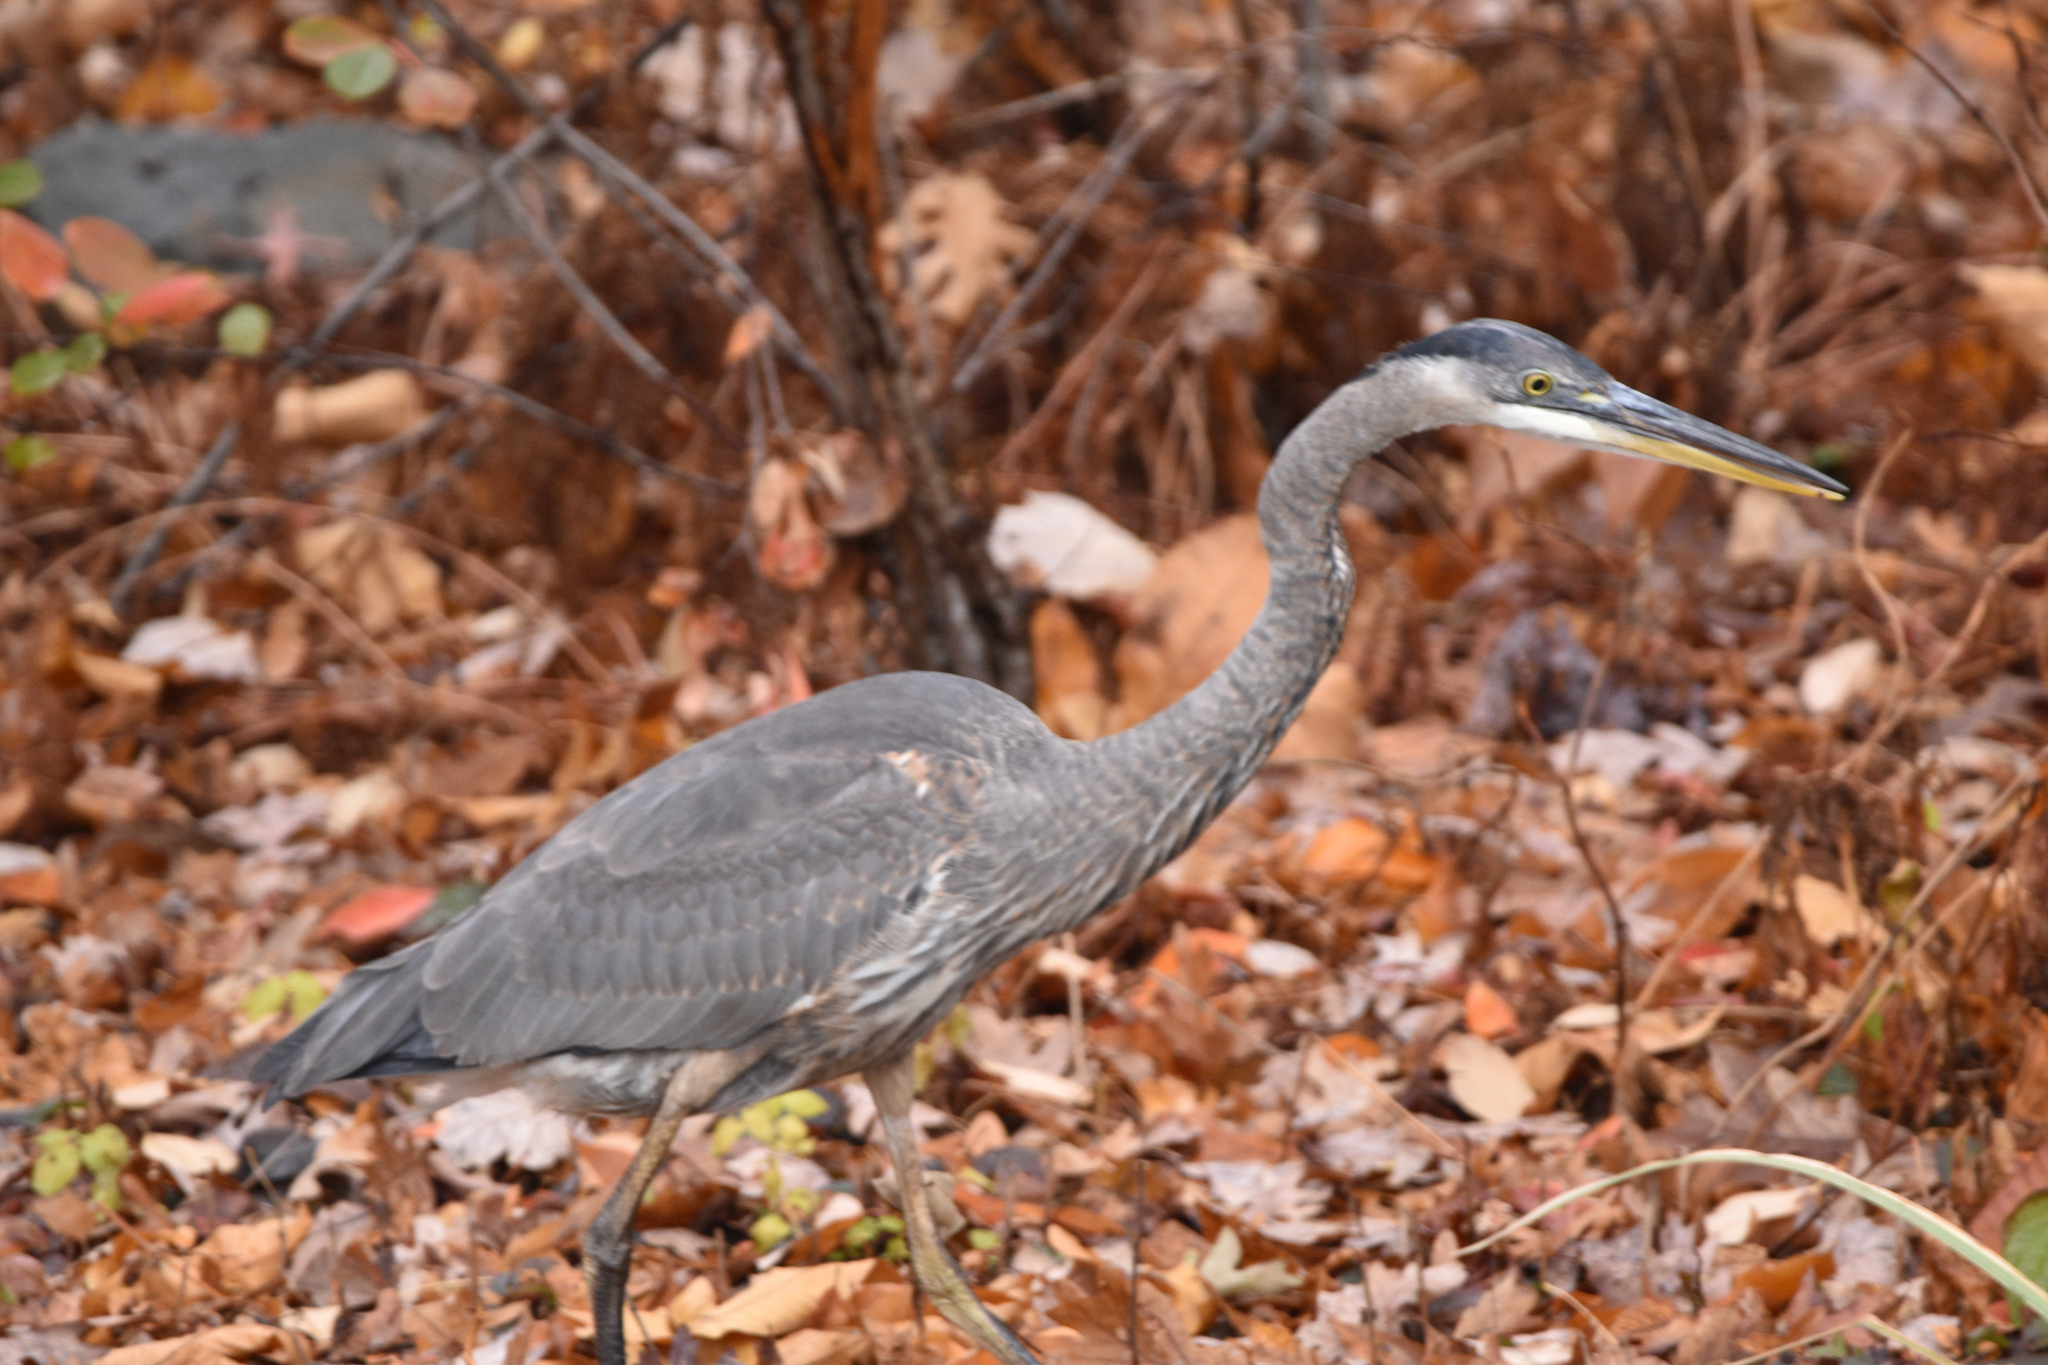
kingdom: Animalia
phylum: Chordata
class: Aves
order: Pelecaniformes
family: Ardeidae
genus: Ardea
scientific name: Ardea herodias
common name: Great blue heron
